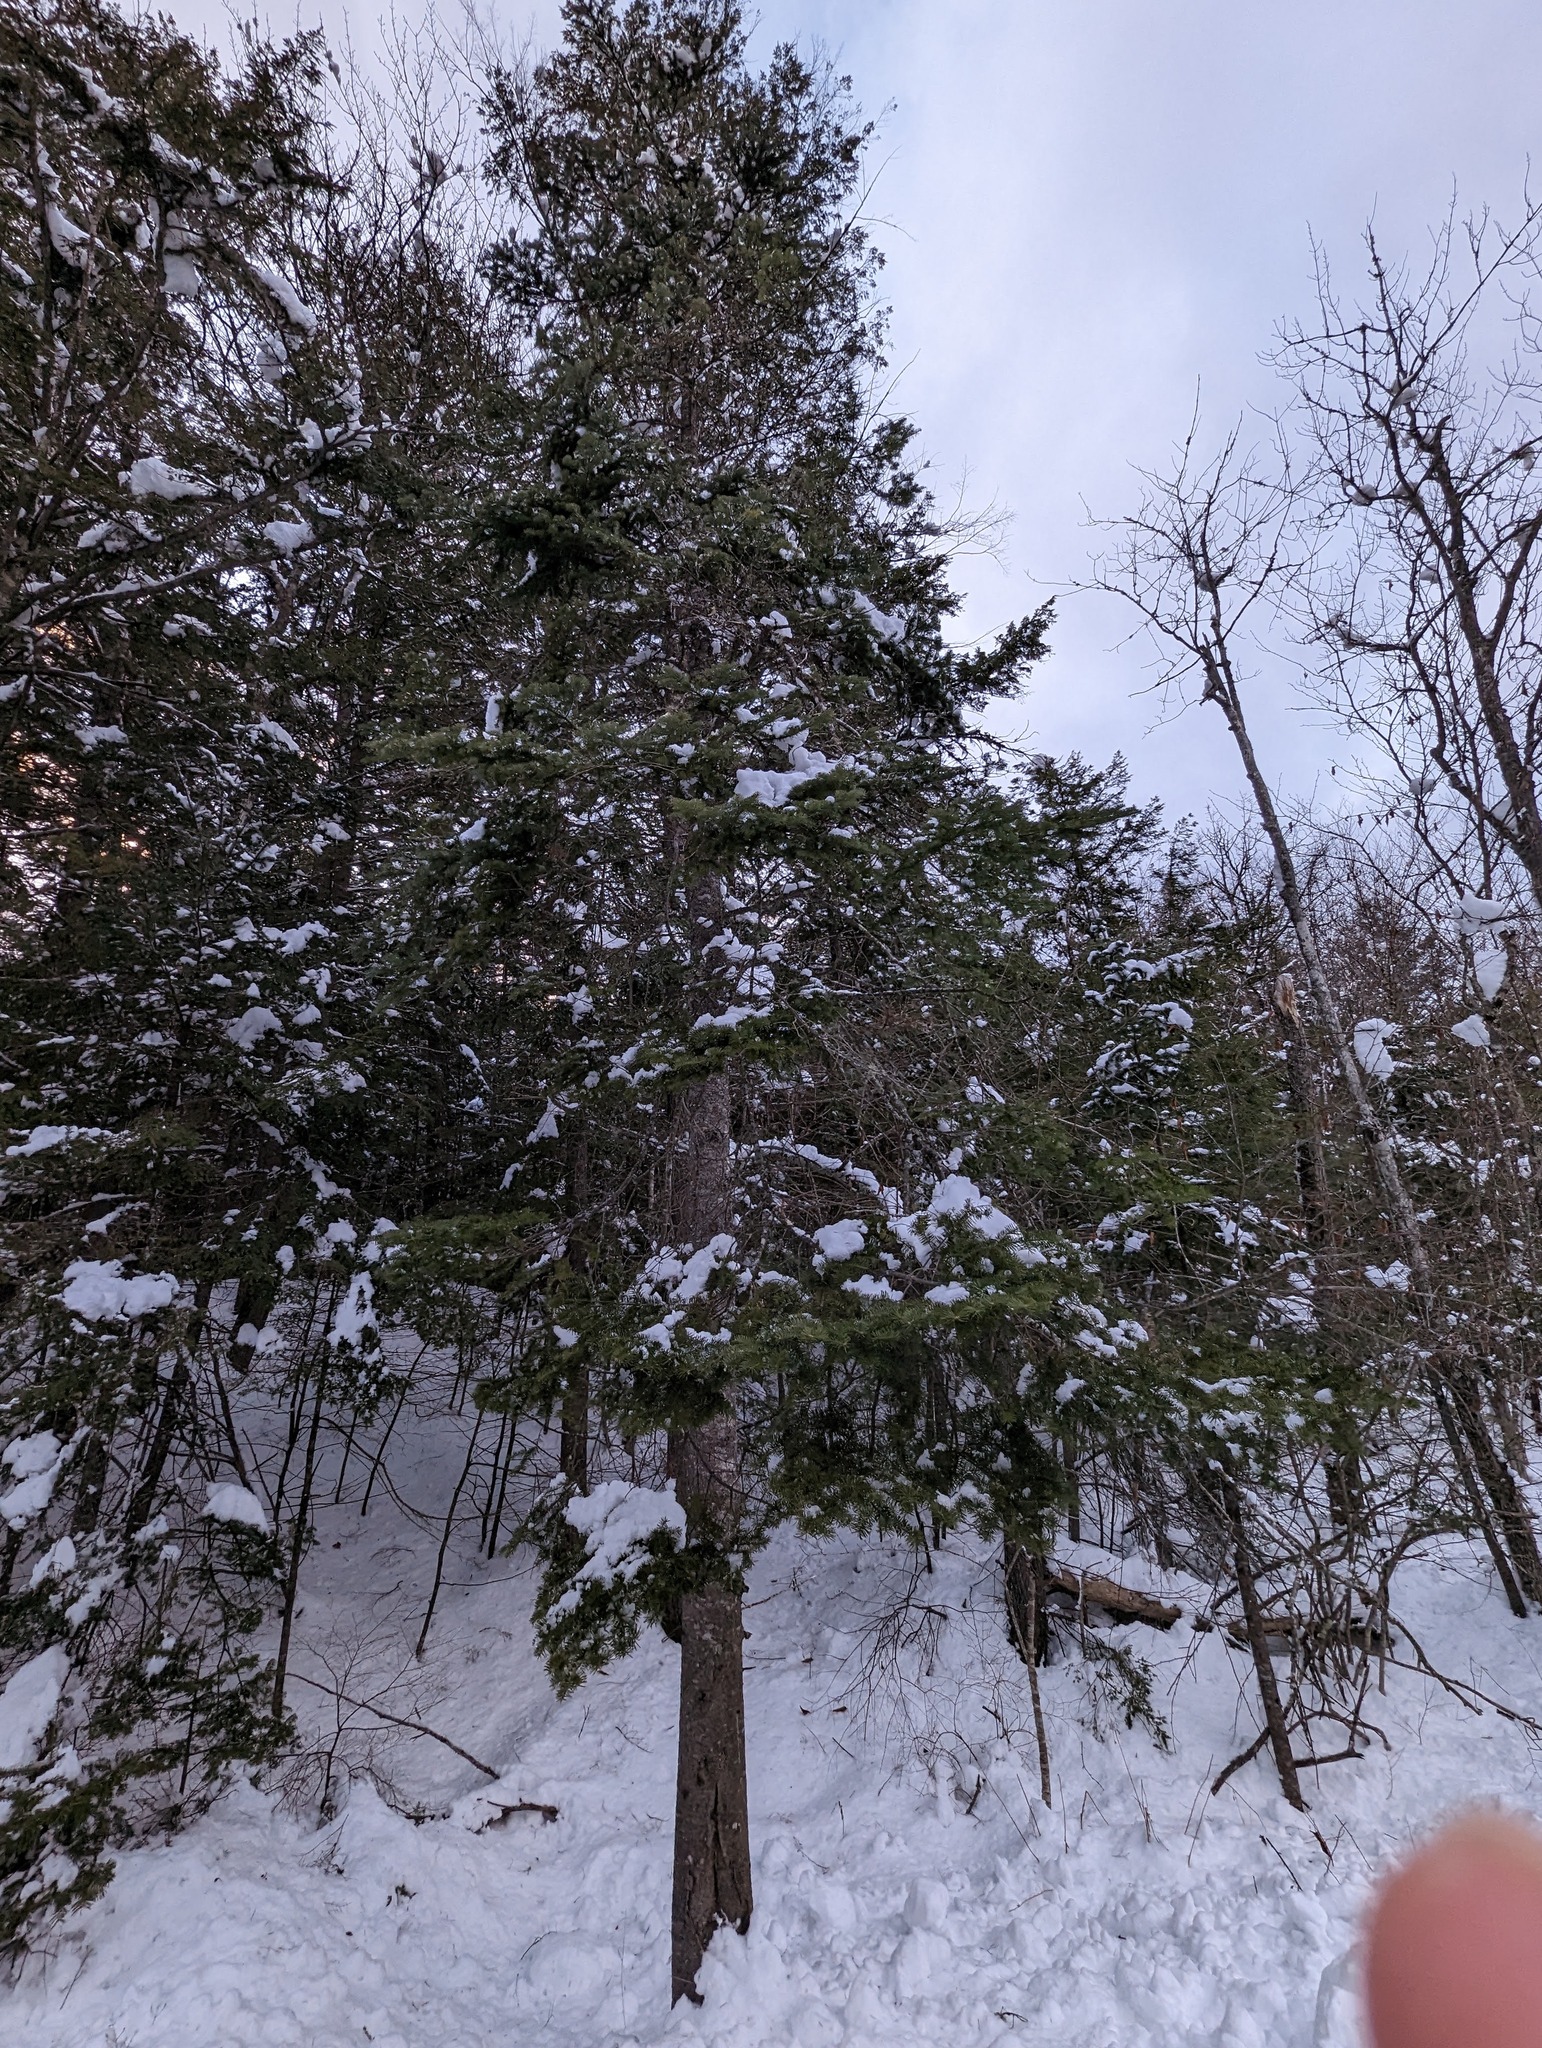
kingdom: Plantae
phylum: Tracheophyta
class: Pinopsida
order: Pinales
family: Pinaceae
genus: Abies
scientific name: Abies balsamea
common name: Balsam fir
